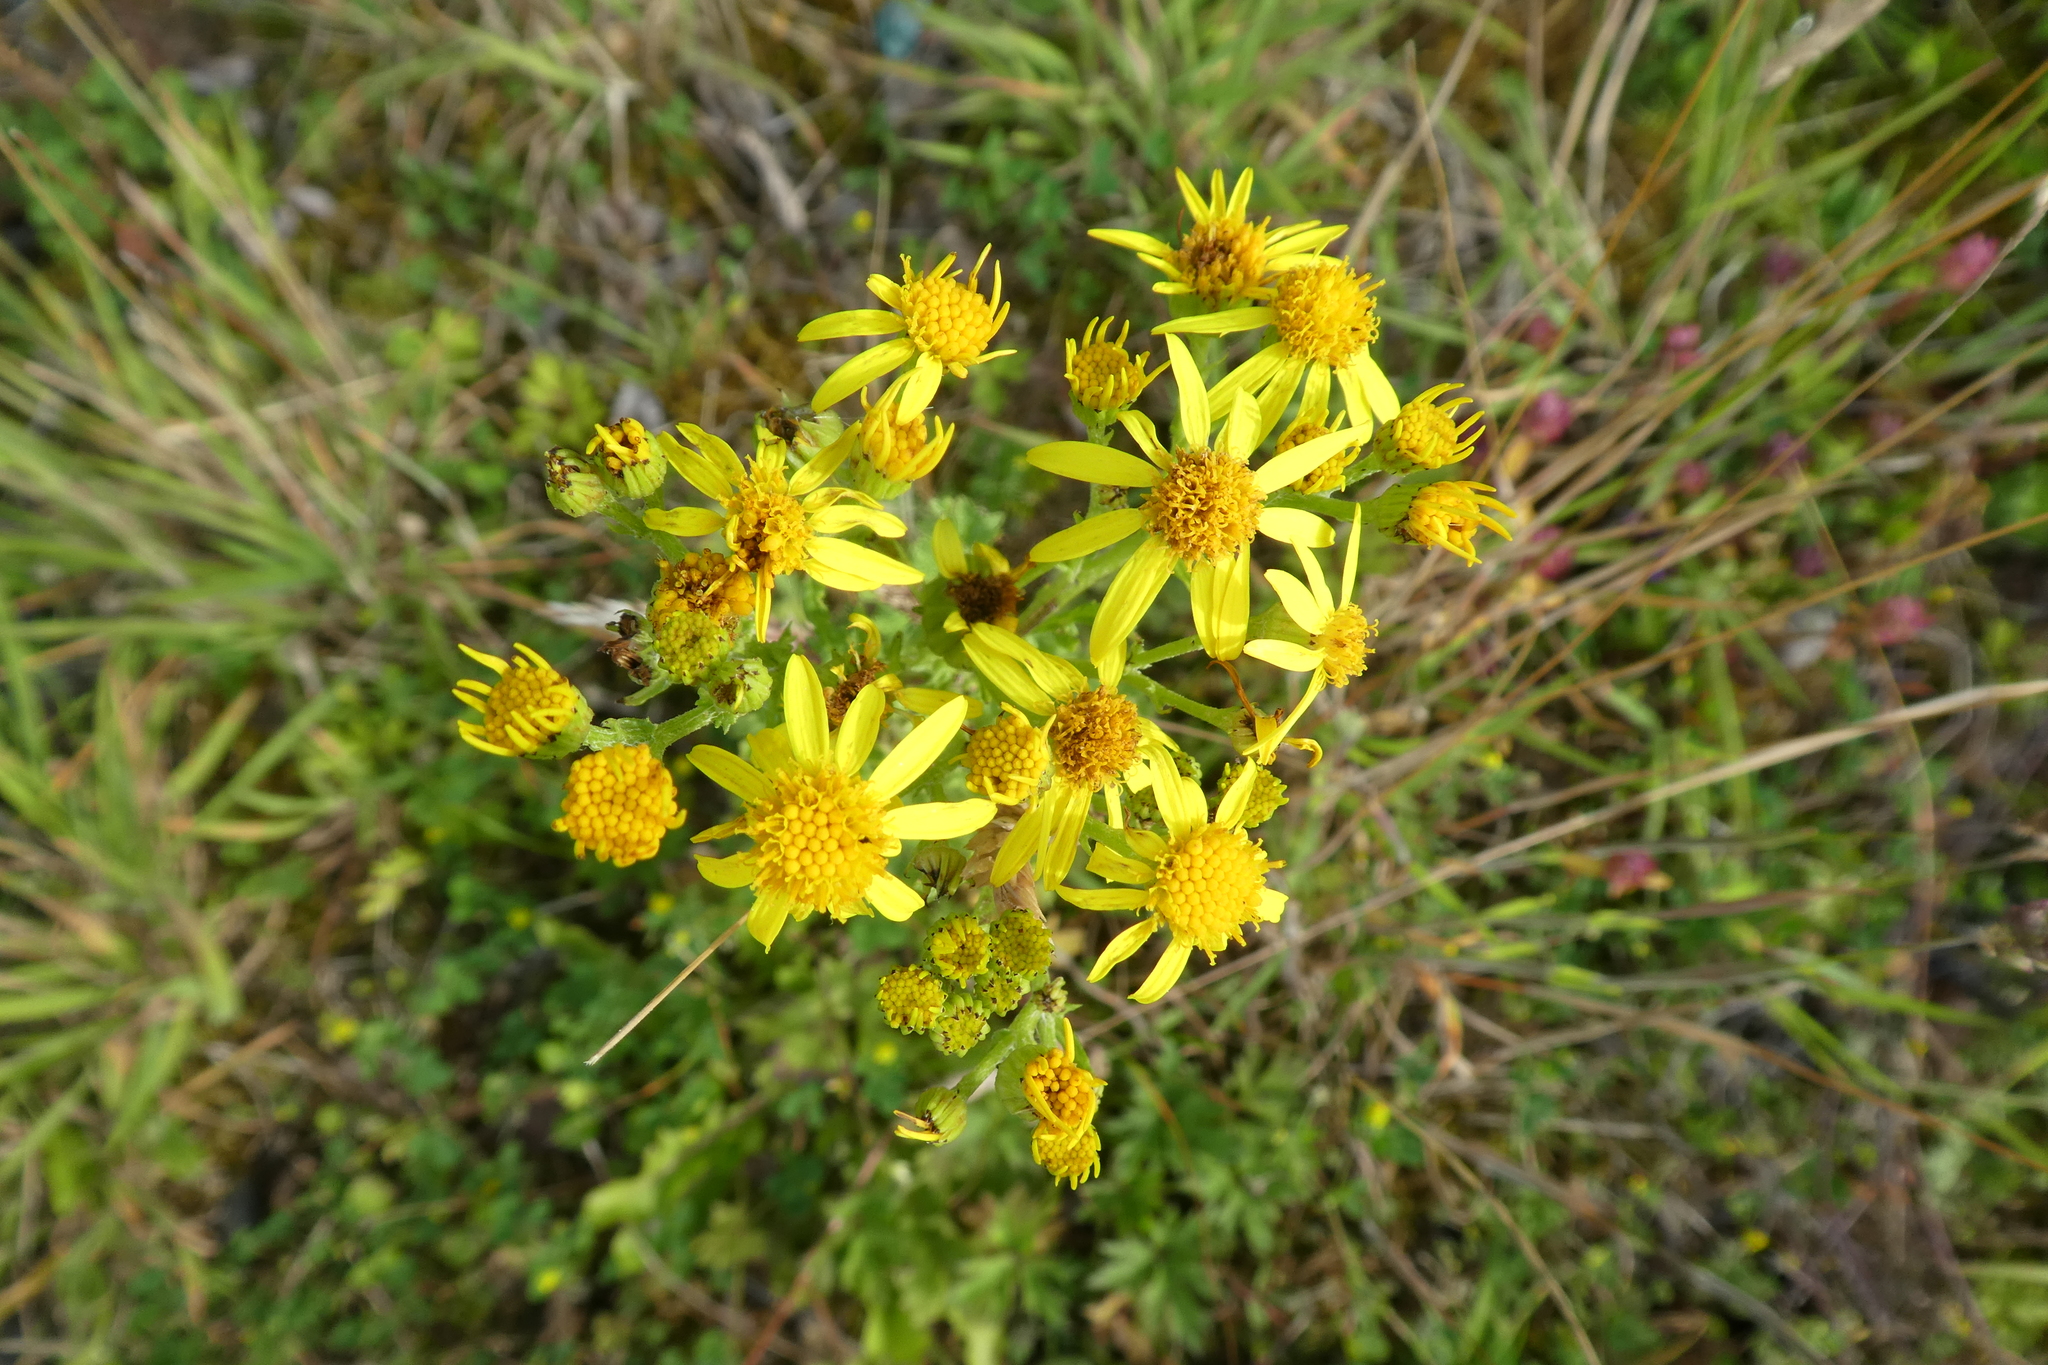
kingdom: Plantae
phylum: Tracheophyta
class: Magnoliopsida
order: Asterales
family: Asteraceae
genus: Jacobaea
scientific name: Jacobaea vulgaris
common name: Stinking willie
